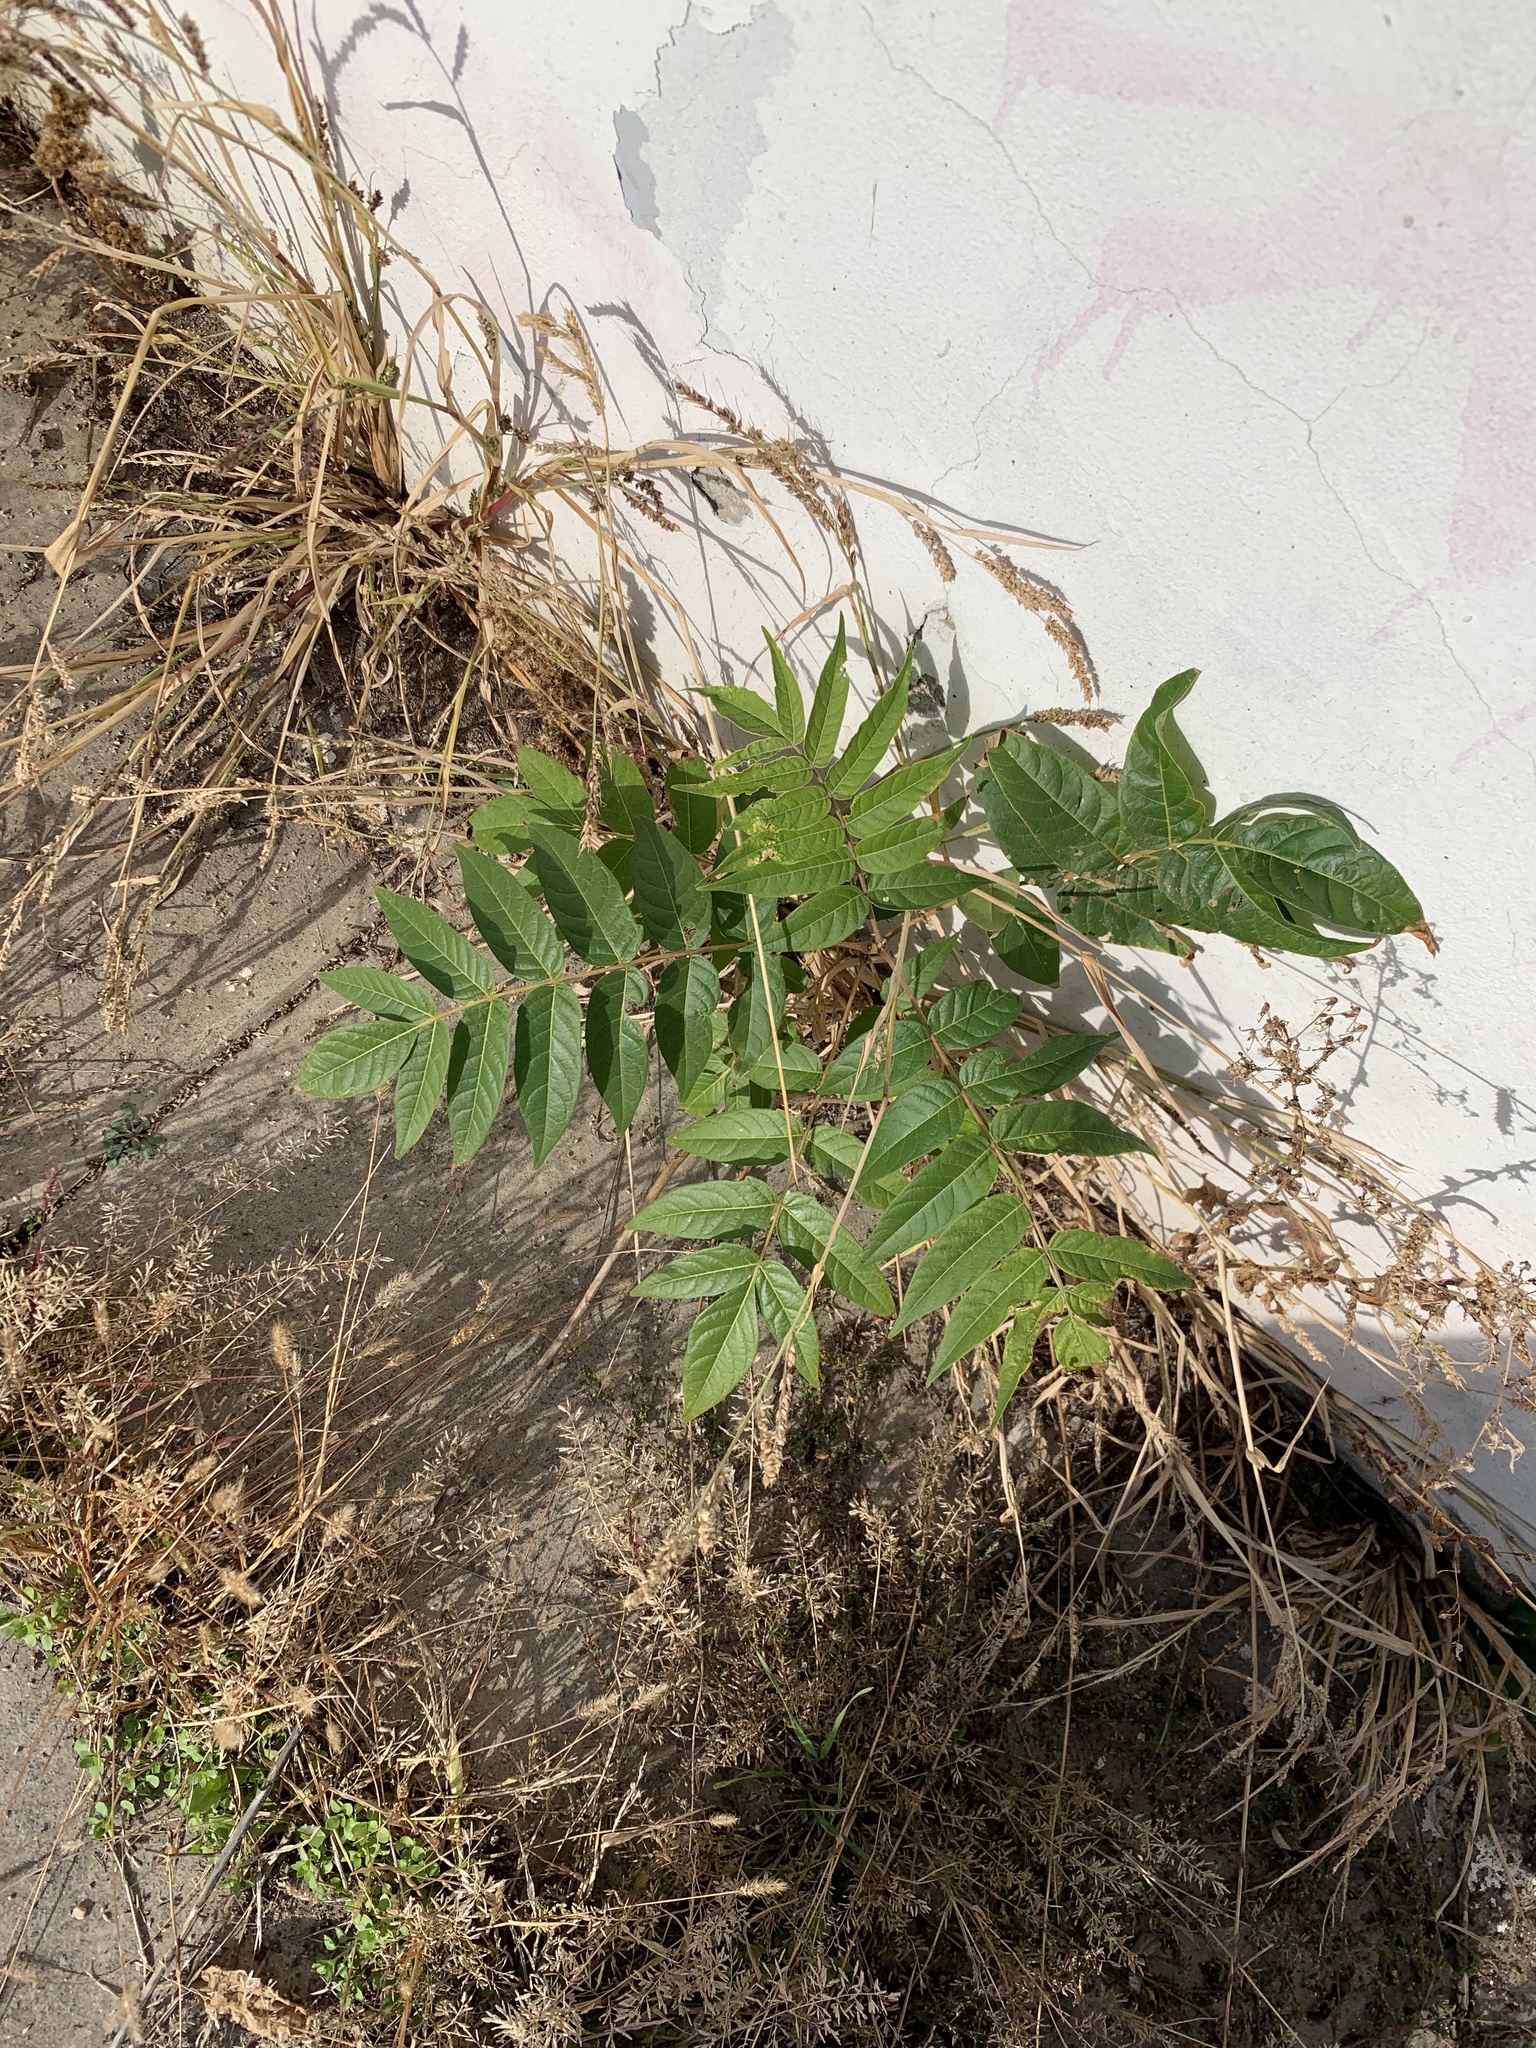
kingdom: Plantae
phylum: Tracheophyta
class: Magnoliopsida
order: Sapindales
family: Simaroubaceae
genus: Ailanthus
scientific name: Ailanthus altissima
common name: Tree-of-heaven
